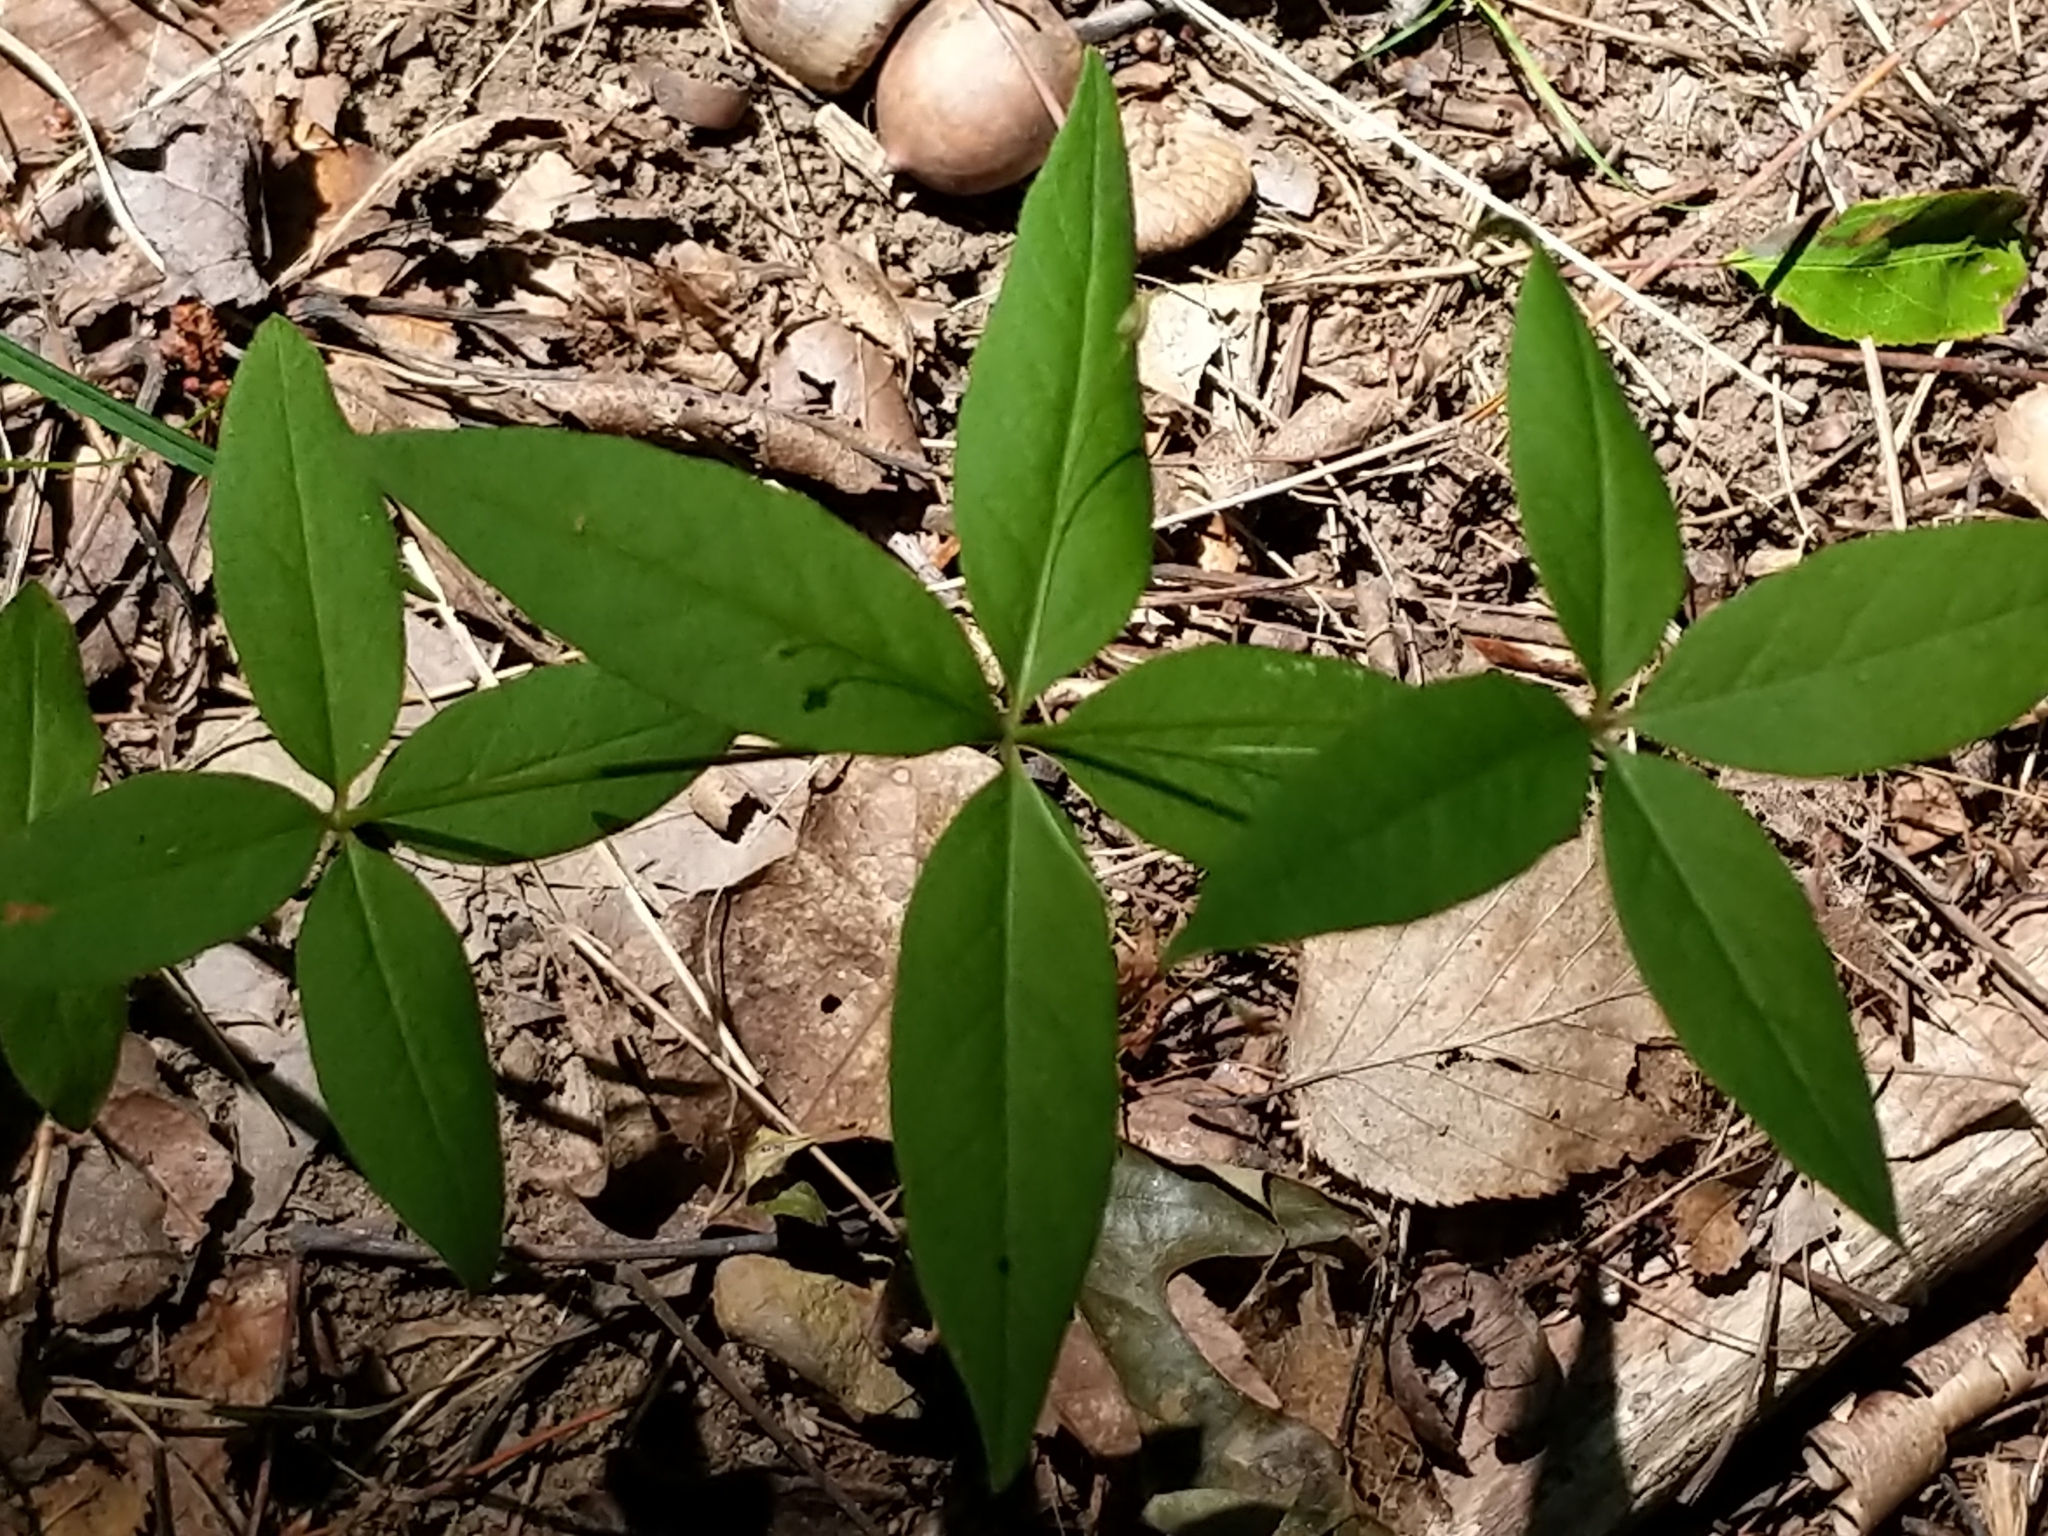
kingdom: Plantae
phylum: Tracheophyta
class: Magnoliopsida
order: Ericales
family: Primulaceae
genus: Lysimachia
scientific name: Lysimachia quadrifolia
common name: Whorled loosestrife
